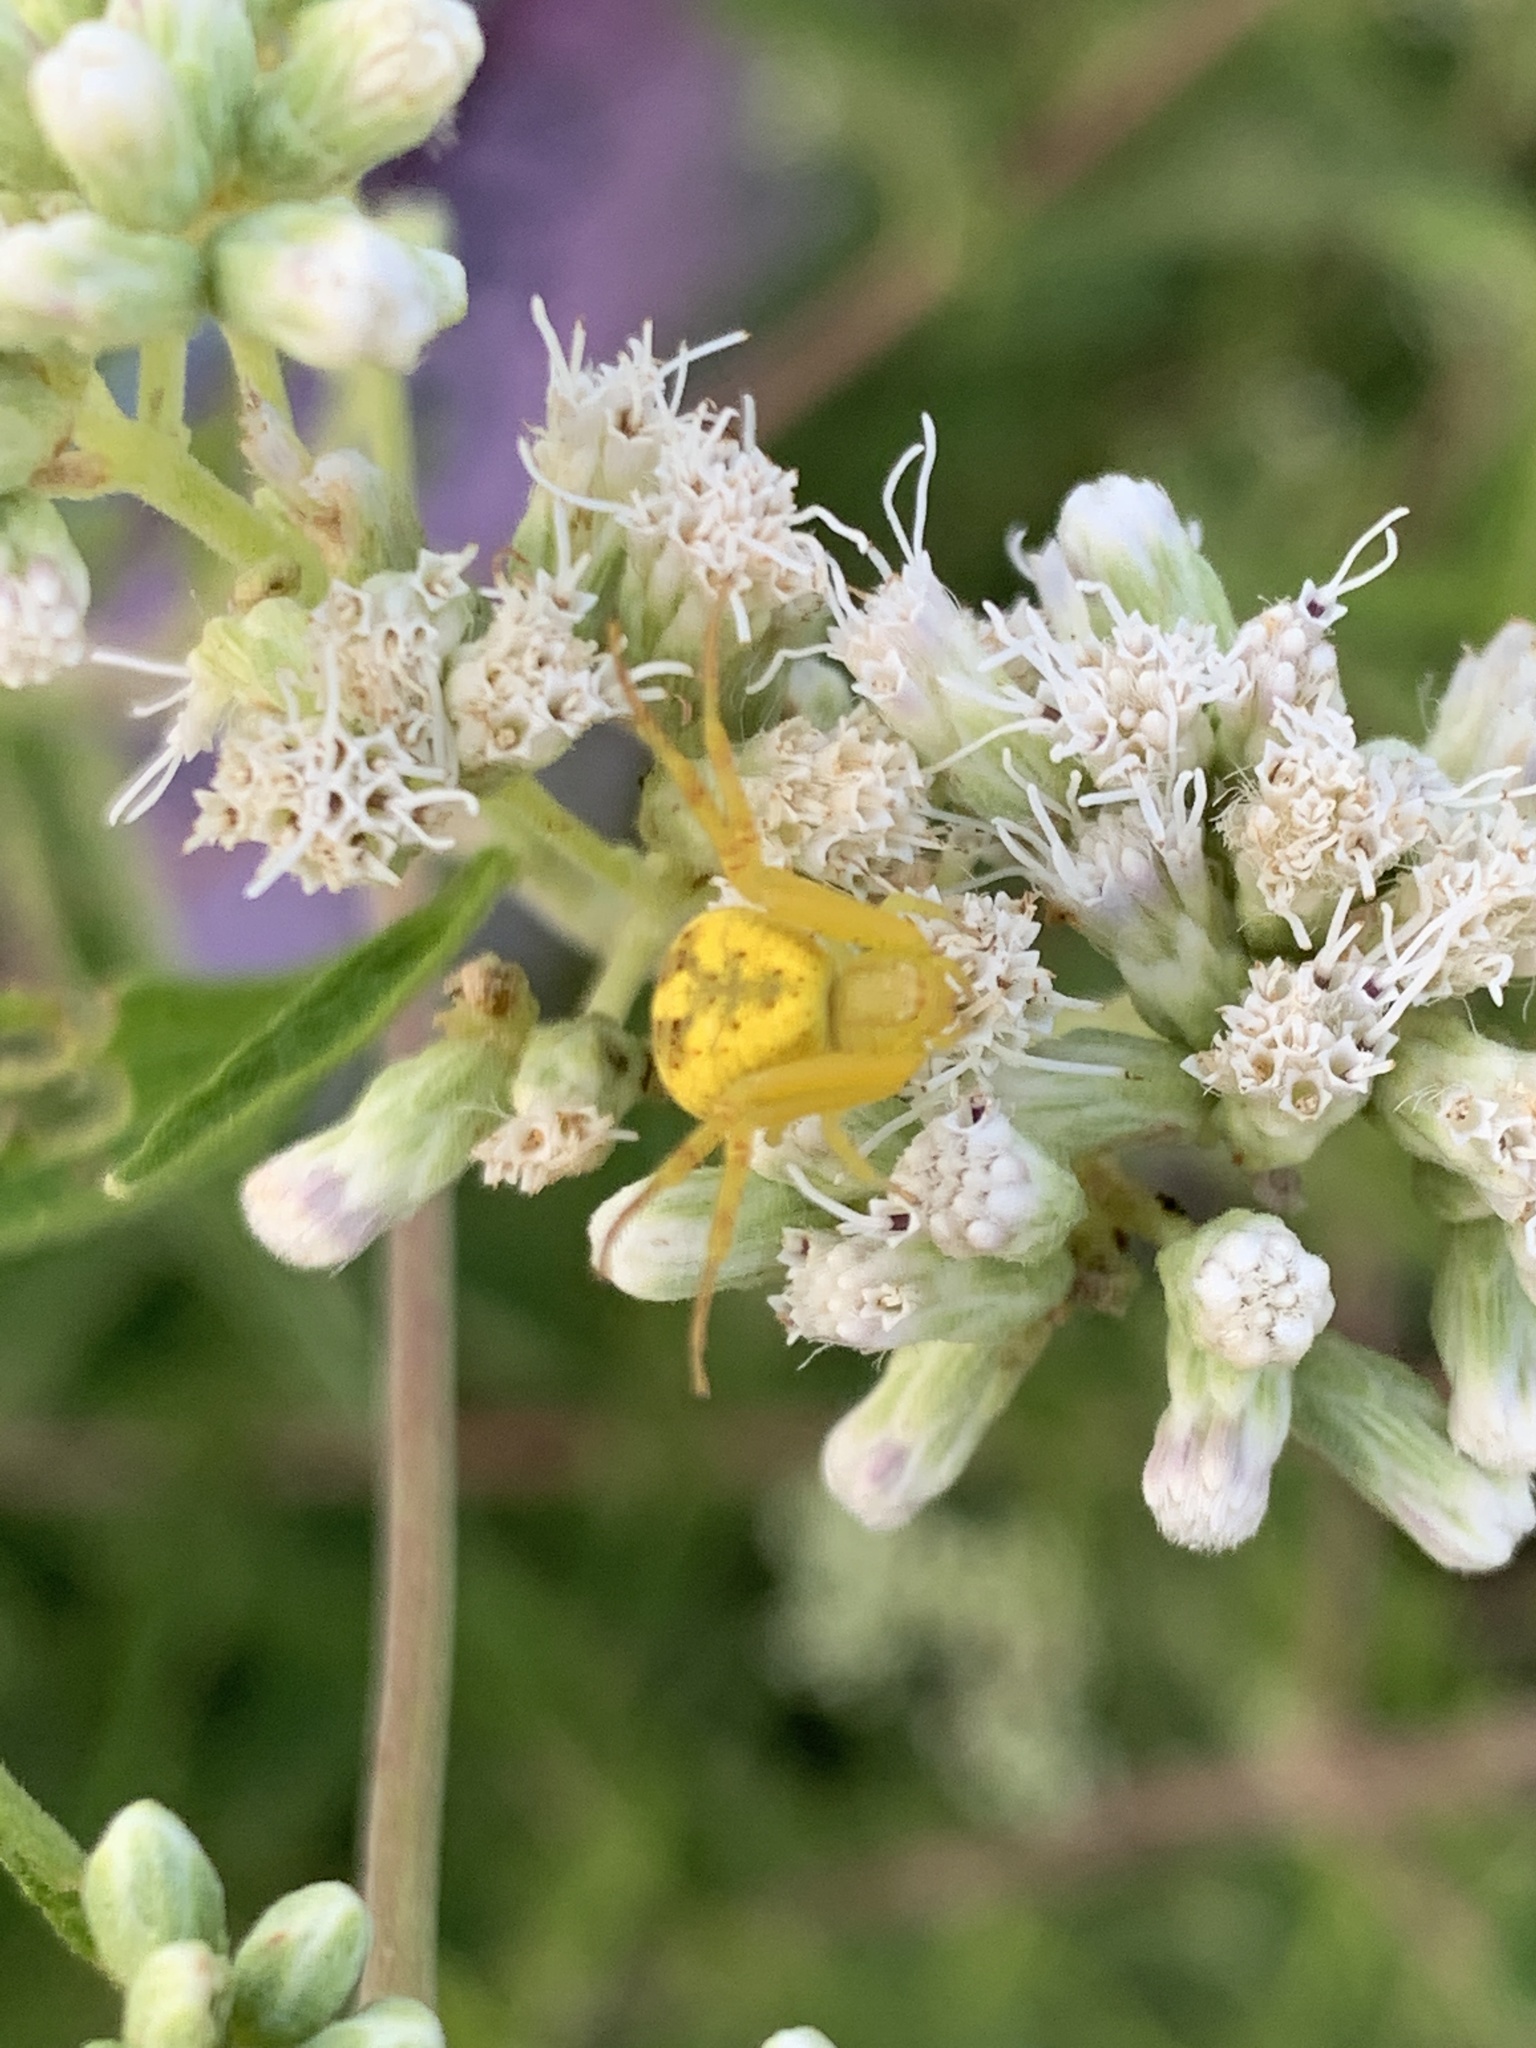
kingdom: Animalia
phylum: Arthropoda
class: Arachnida
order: Araneae
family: Thomisidae
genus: Misumenops
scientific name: Misumenops
